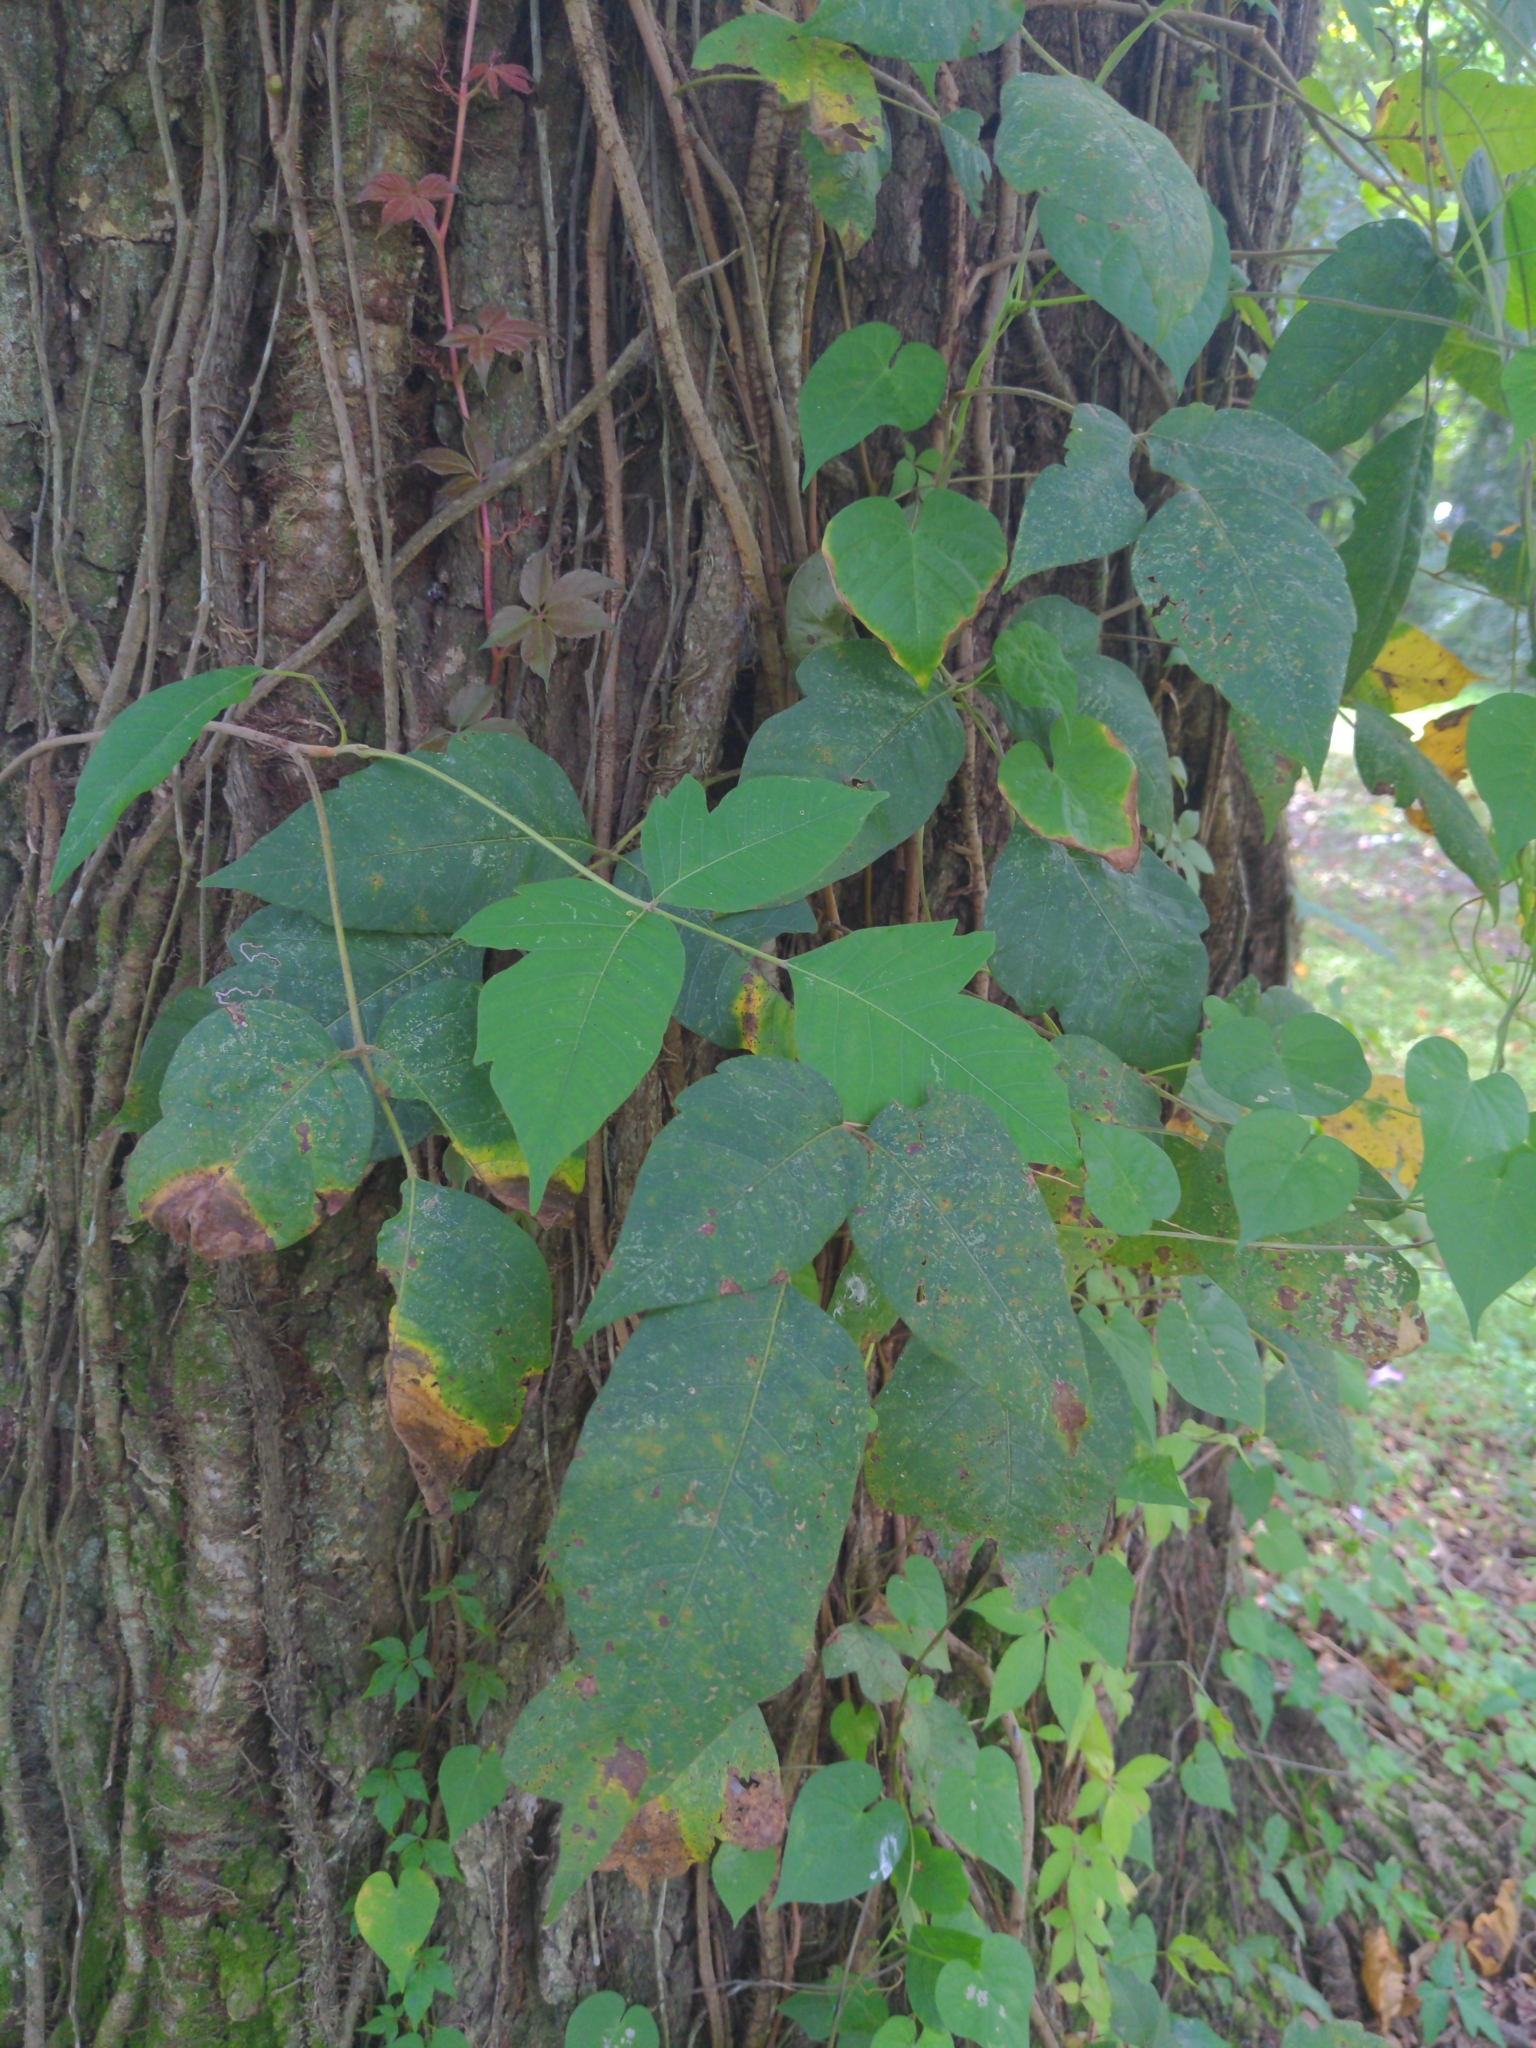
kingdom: Plantae
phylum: Tracheophyta
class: Magnoliopsida
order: Sapindales
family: Anacardiaceae
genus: Toxicodendron
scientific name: Toxicodendron radicans
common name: Poison ivy
